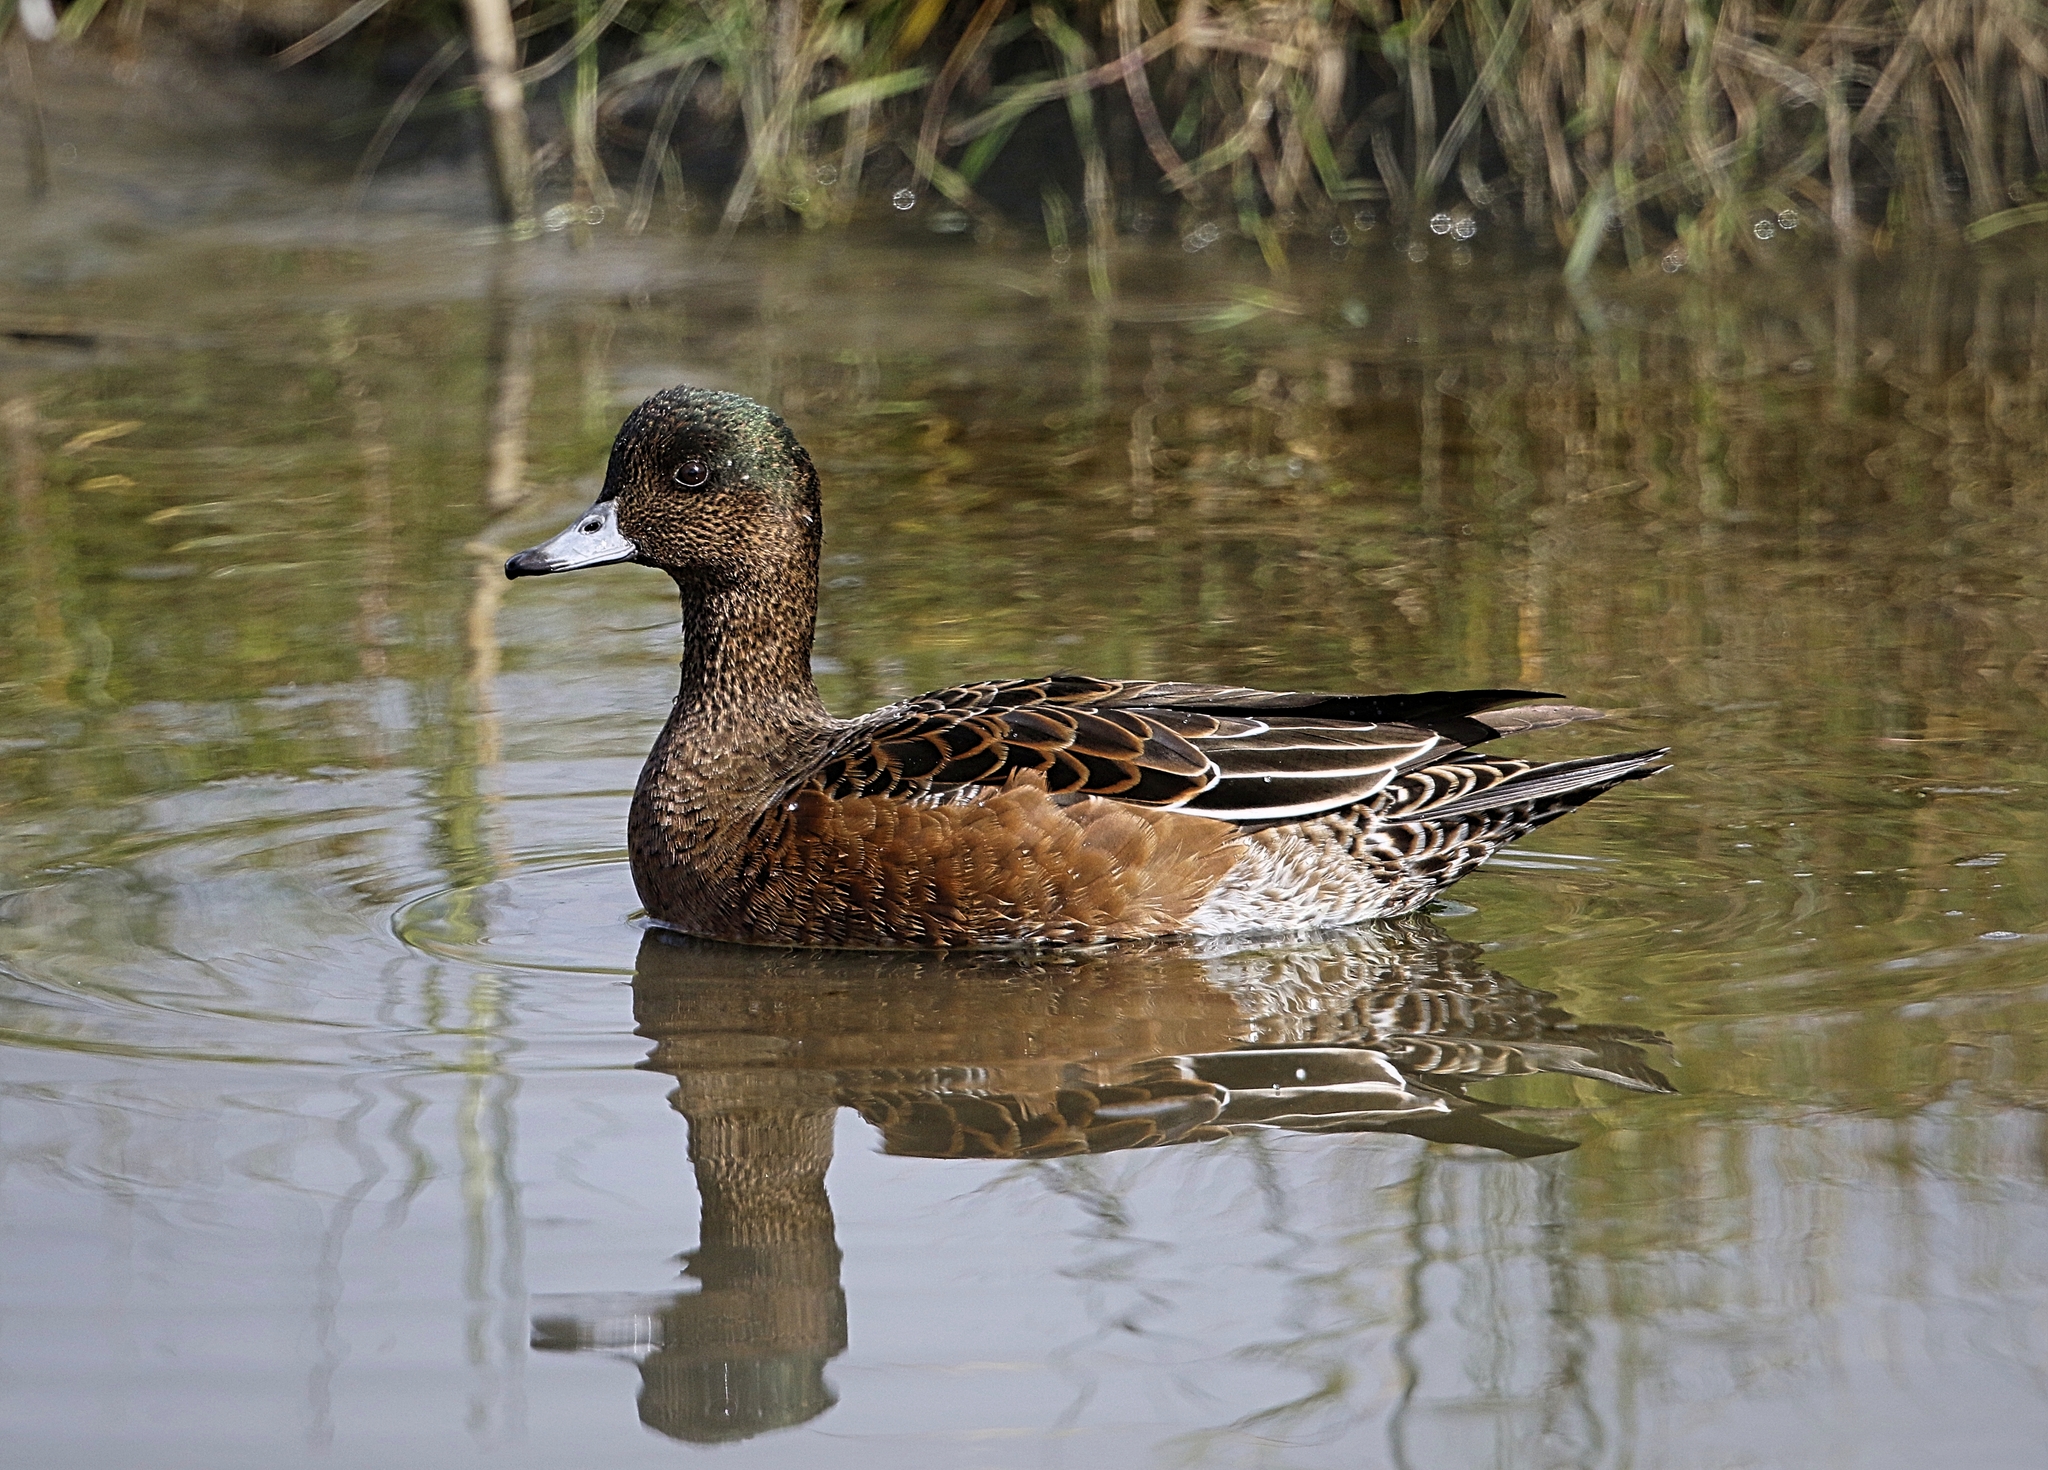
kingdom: Animalia
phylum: Chordata
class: Aves
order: Anseriformes
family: Anatidae
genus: Mareca
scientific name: Mareca penelope
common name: Eurasian wigeon
